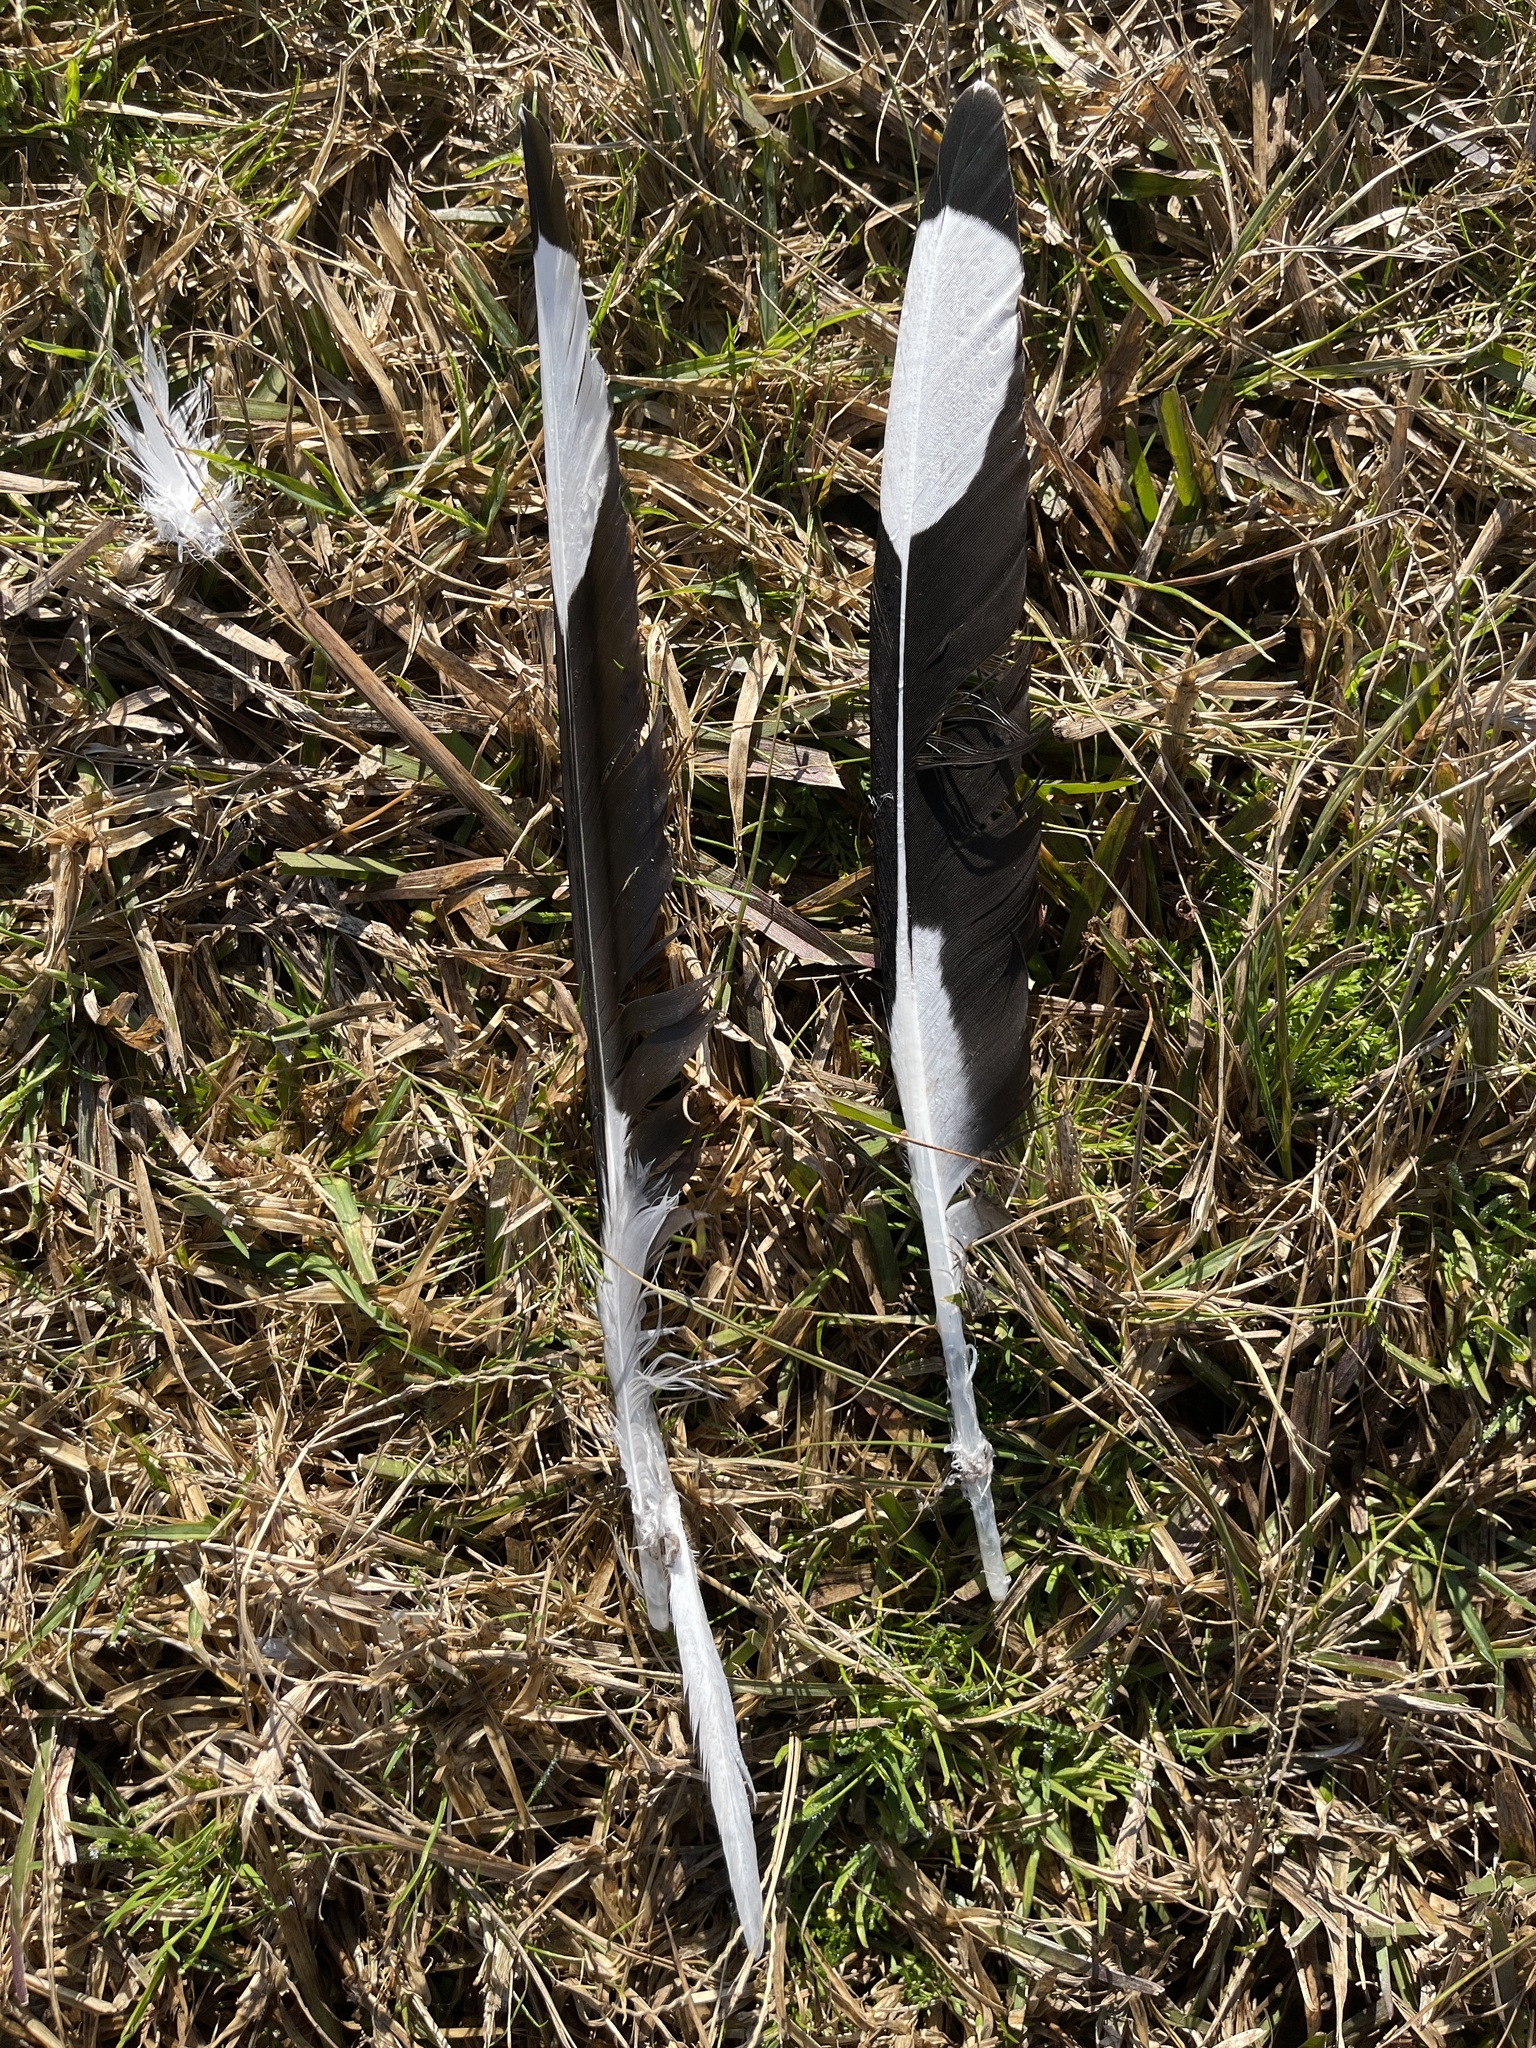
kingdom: Animalia
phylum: Chordata
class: Aves
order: Charadriiformes
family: Laridae
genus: Chroicocephalus
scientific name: Chroicocephalus novaehollandiae
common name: Silver gull
